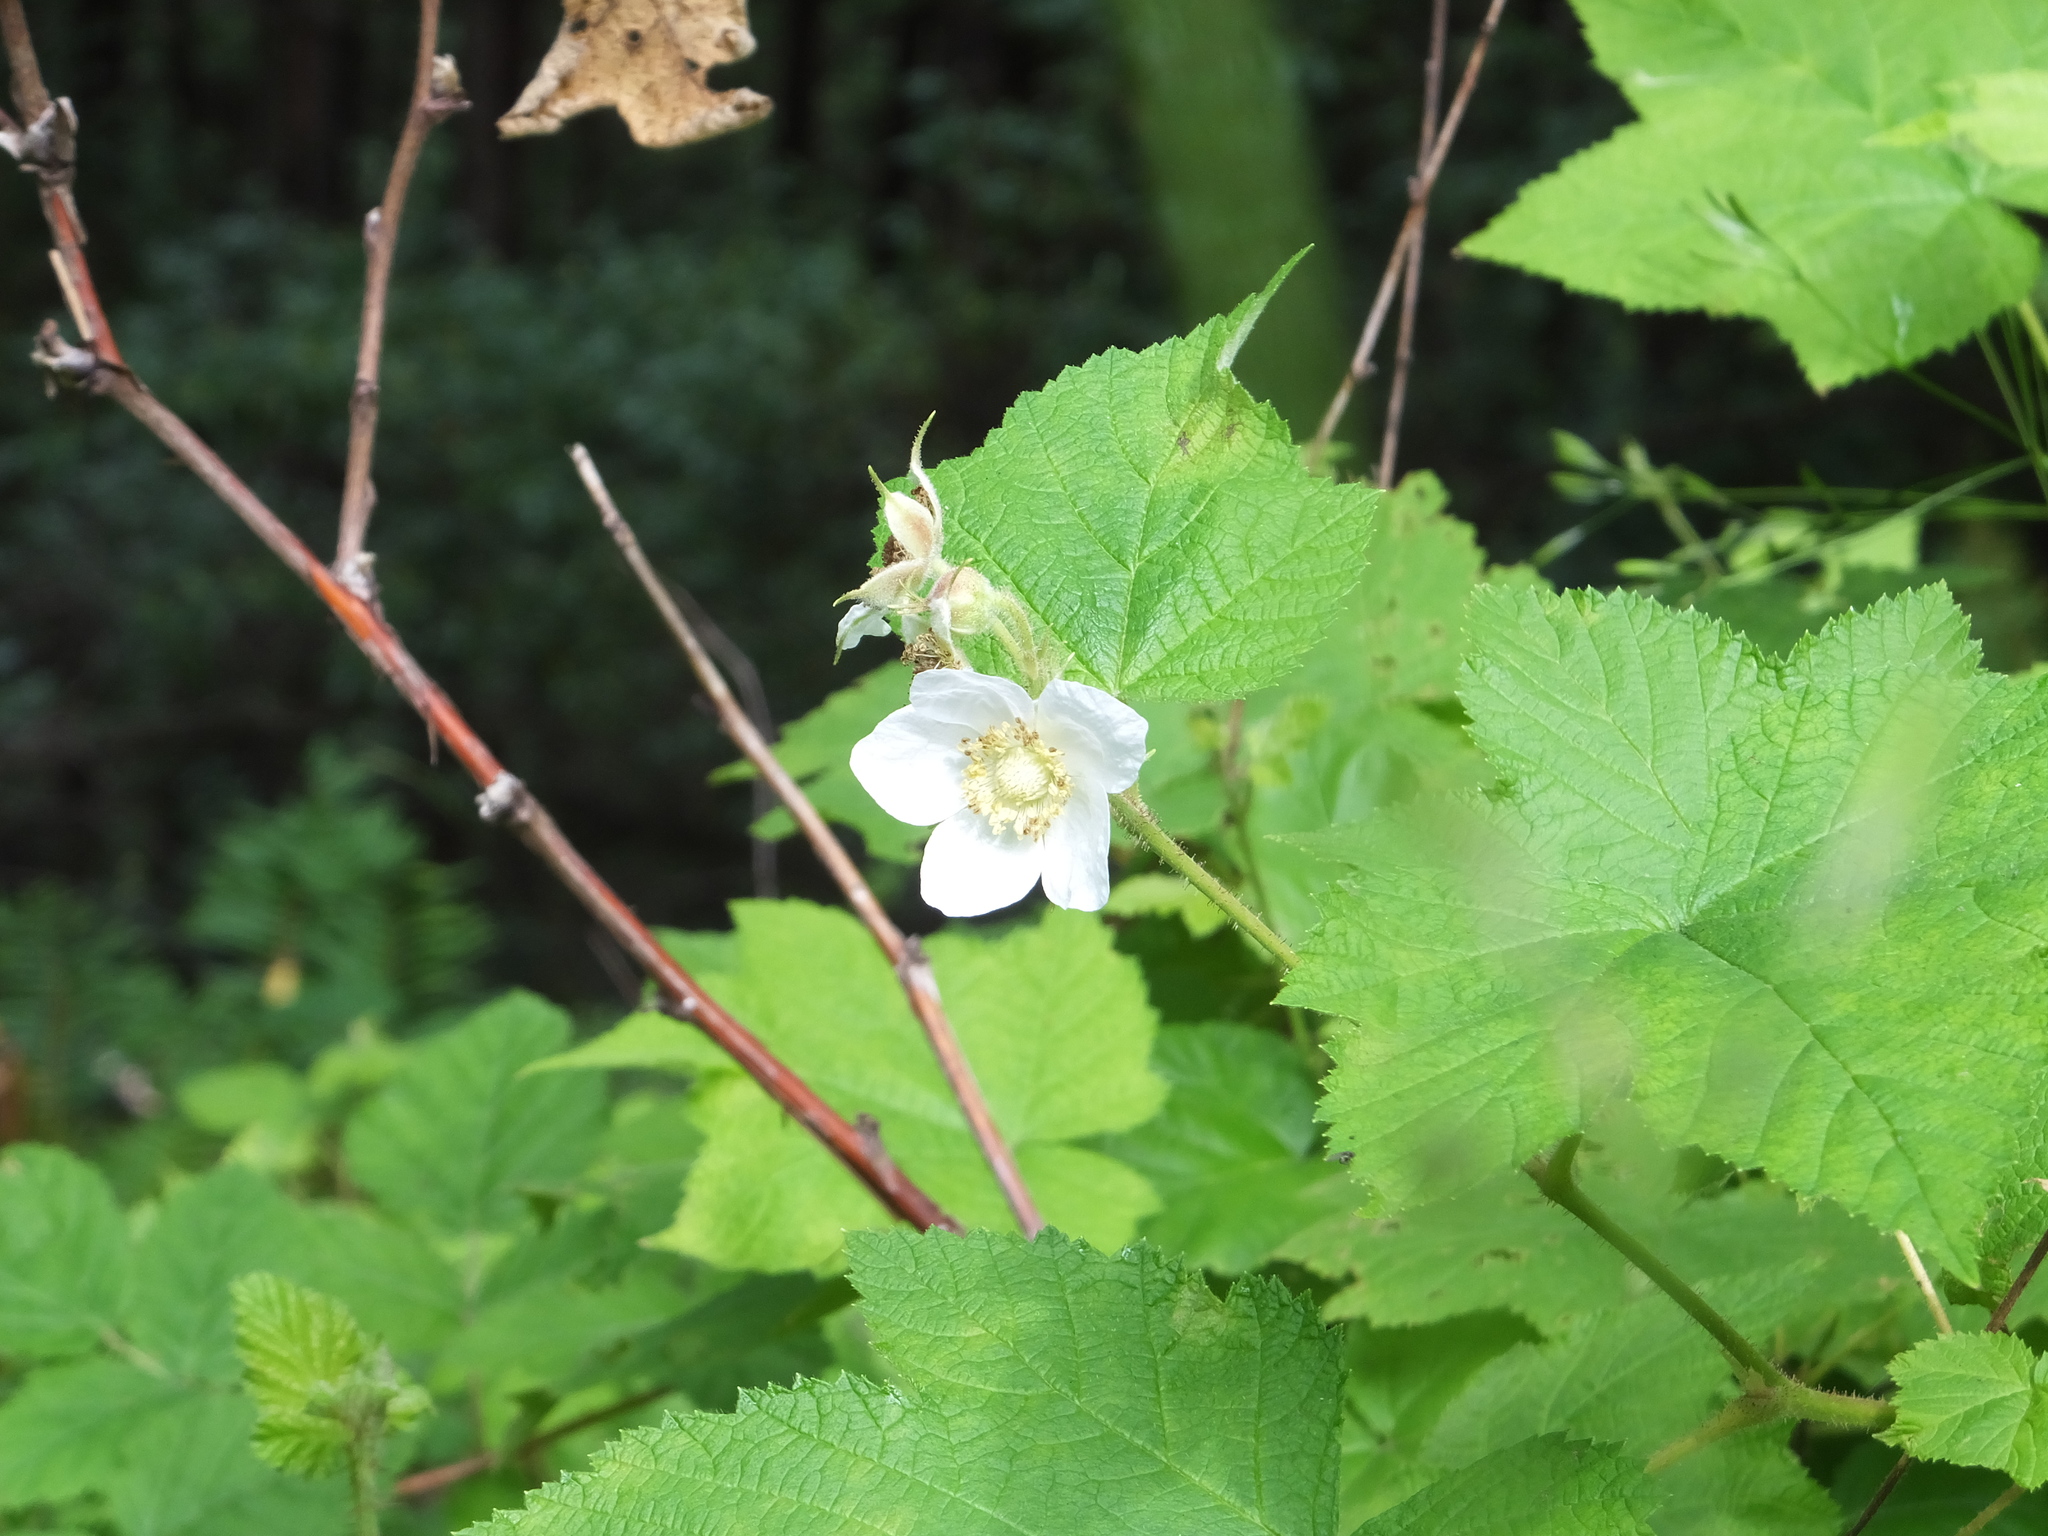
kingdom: Plantae
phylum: Tracheophyta
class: Magnoliopsida
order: Rosales
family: Rosaceae
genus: Rubus
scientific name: Rubus parviflorus
